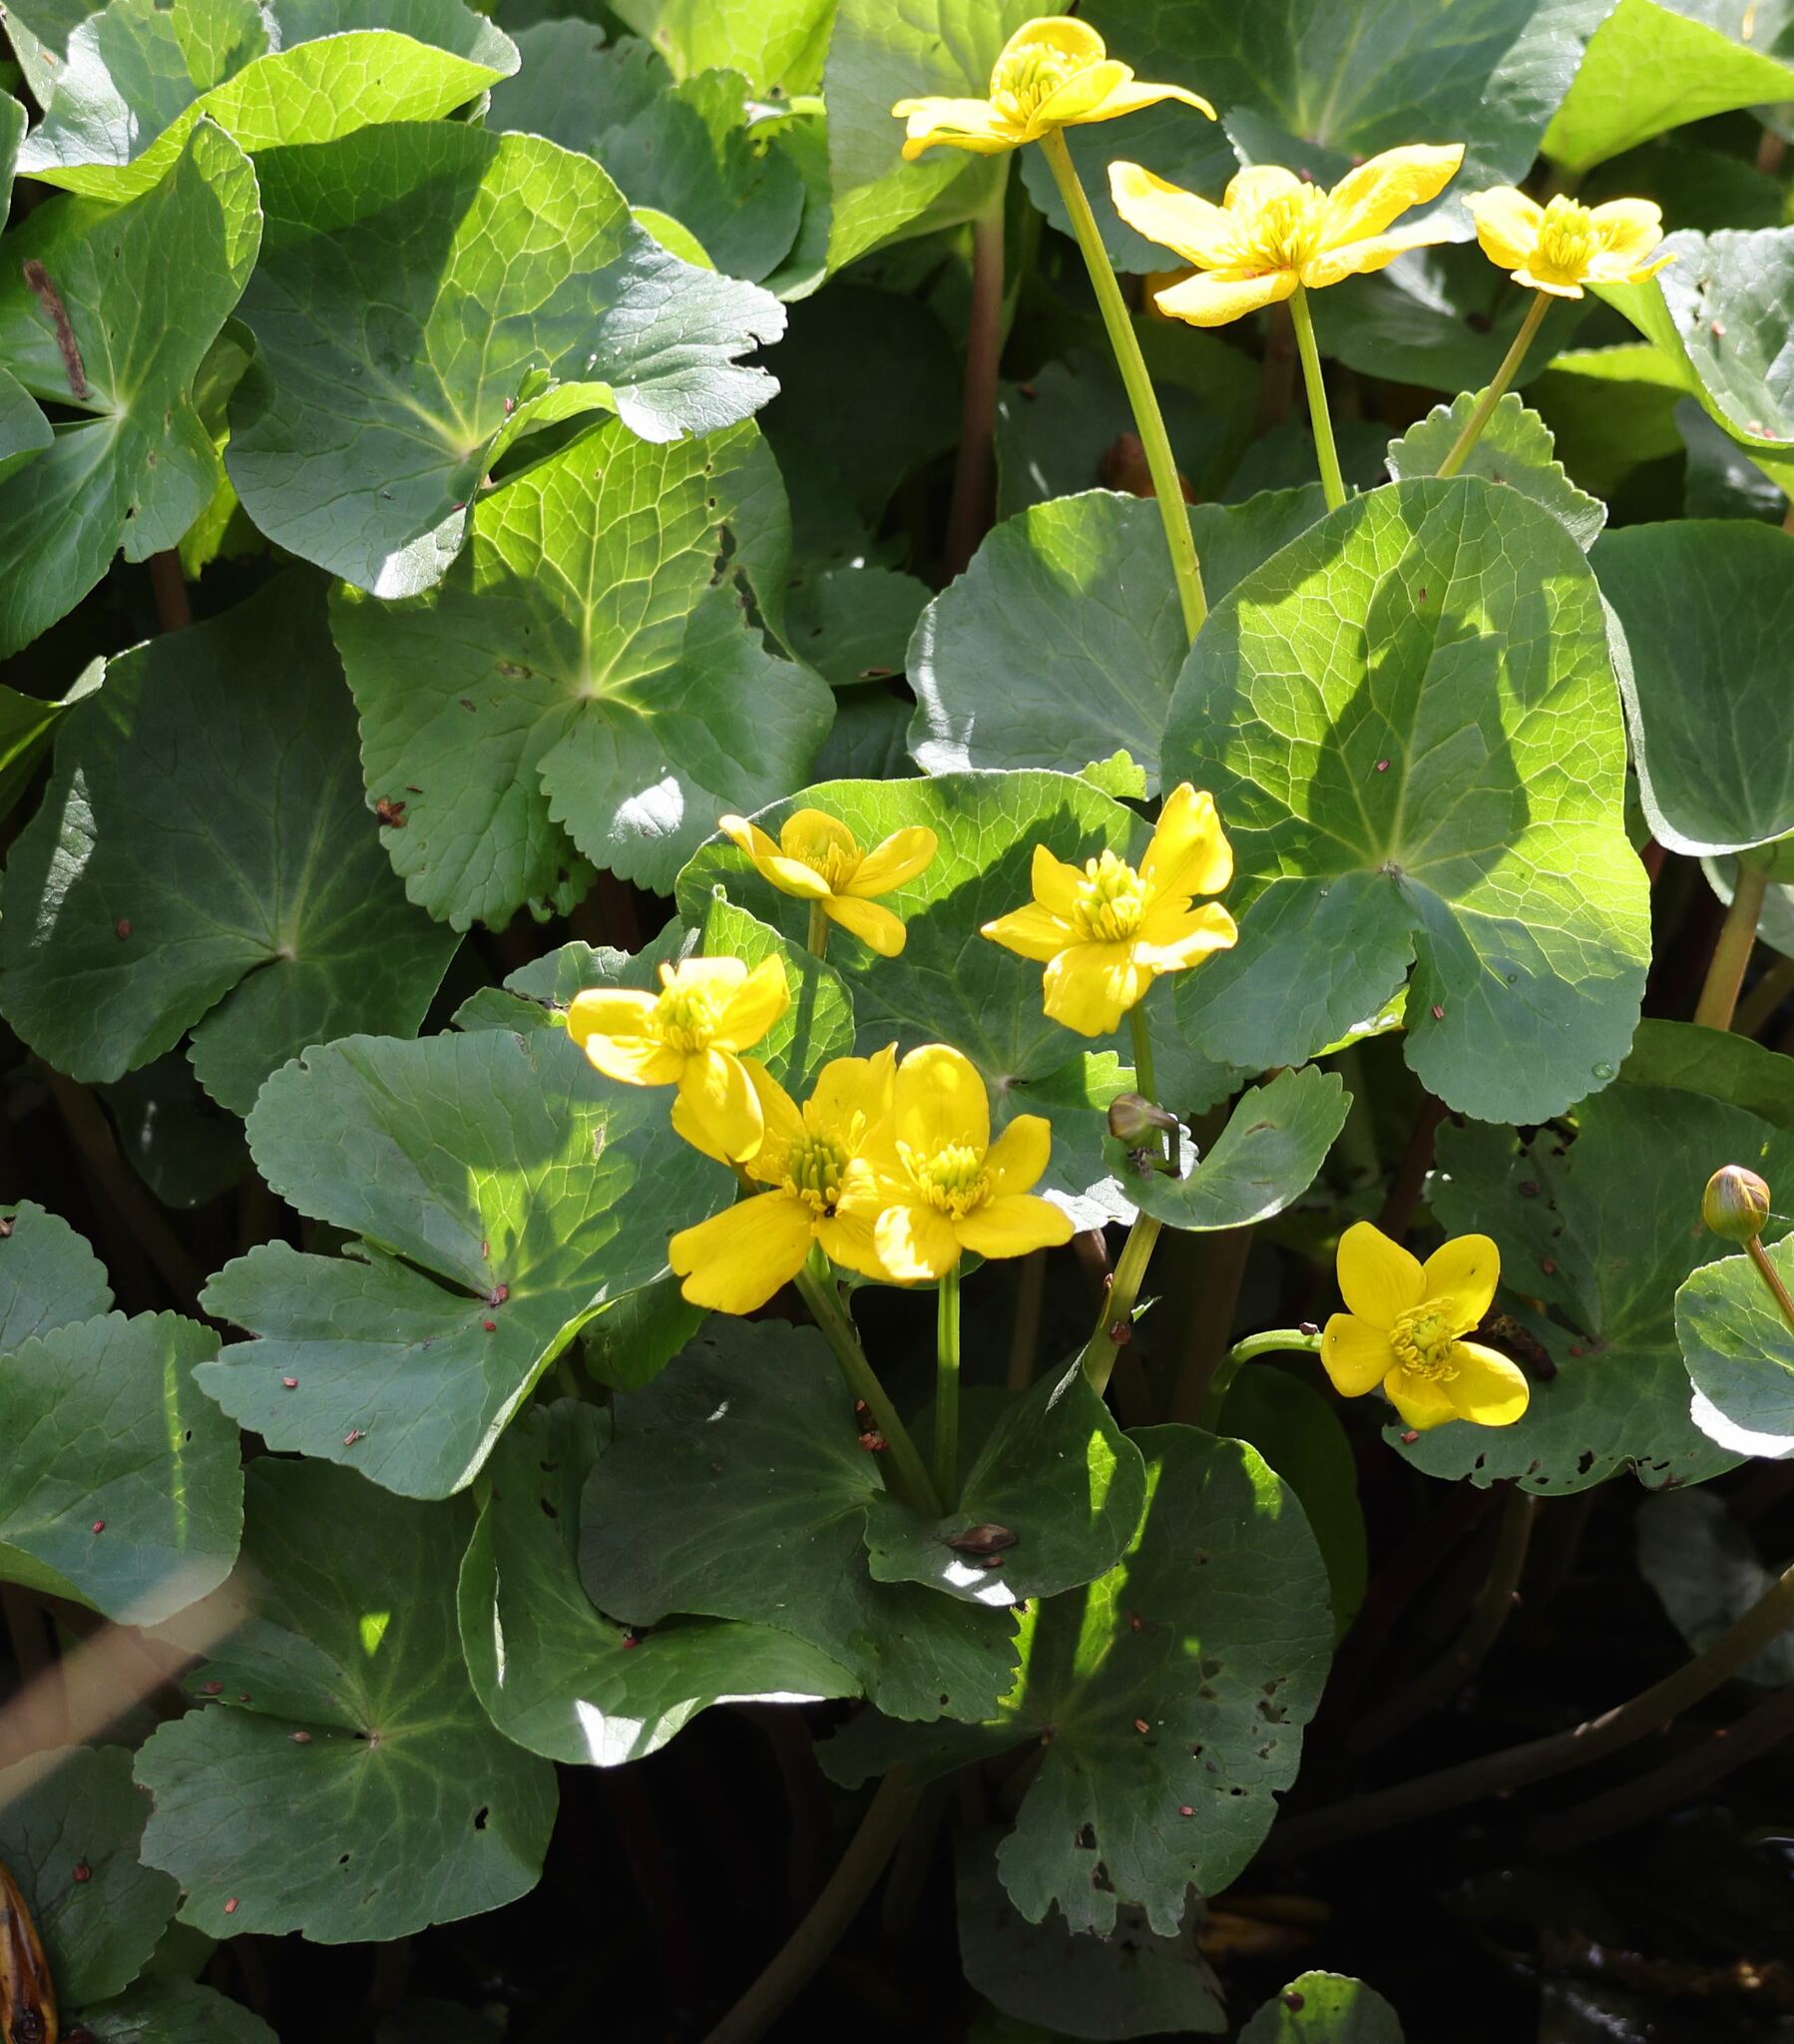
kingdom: Plantae
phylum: Tracheophyta
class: Magnoliopsida
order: Ranunculales
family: Ranunculaceae
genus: Caltha
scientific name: Caltha palustris
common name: Marsh marigold
